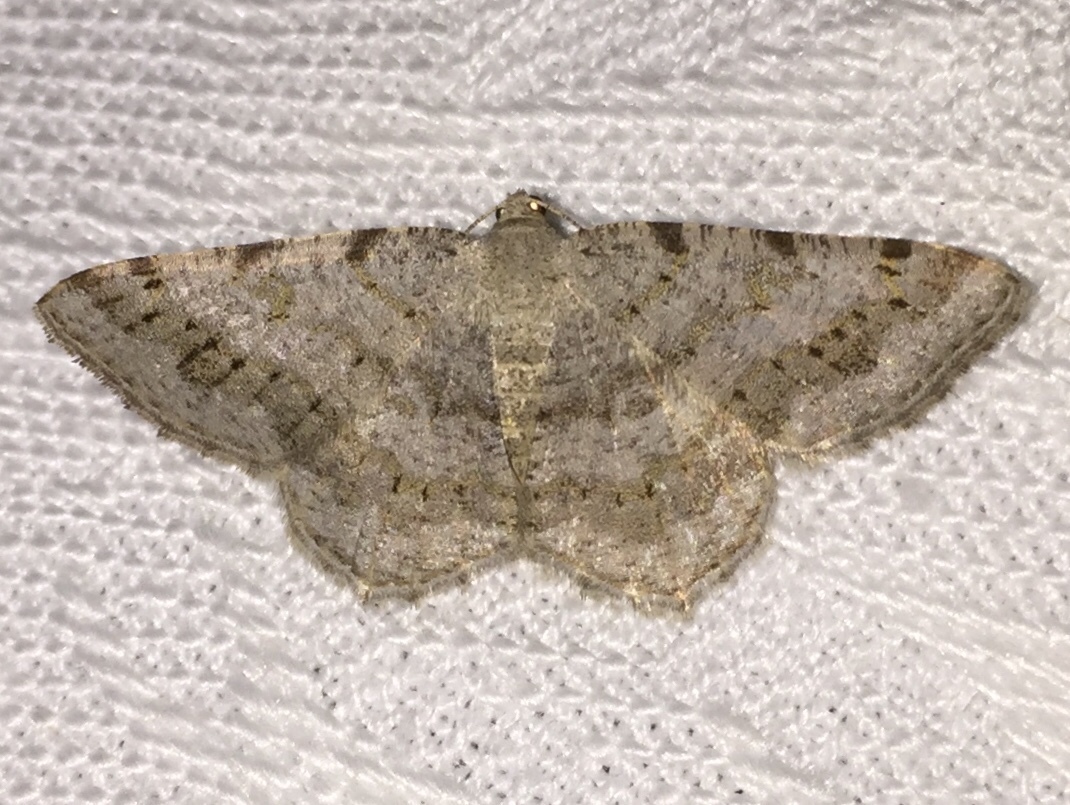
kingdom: Animalia
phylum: Arthropoda
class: Insecta
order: Lepidoptera
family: Geometridae
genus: Digrammia
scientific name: Digrammia ocellinata
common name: Faint-spotted angle
